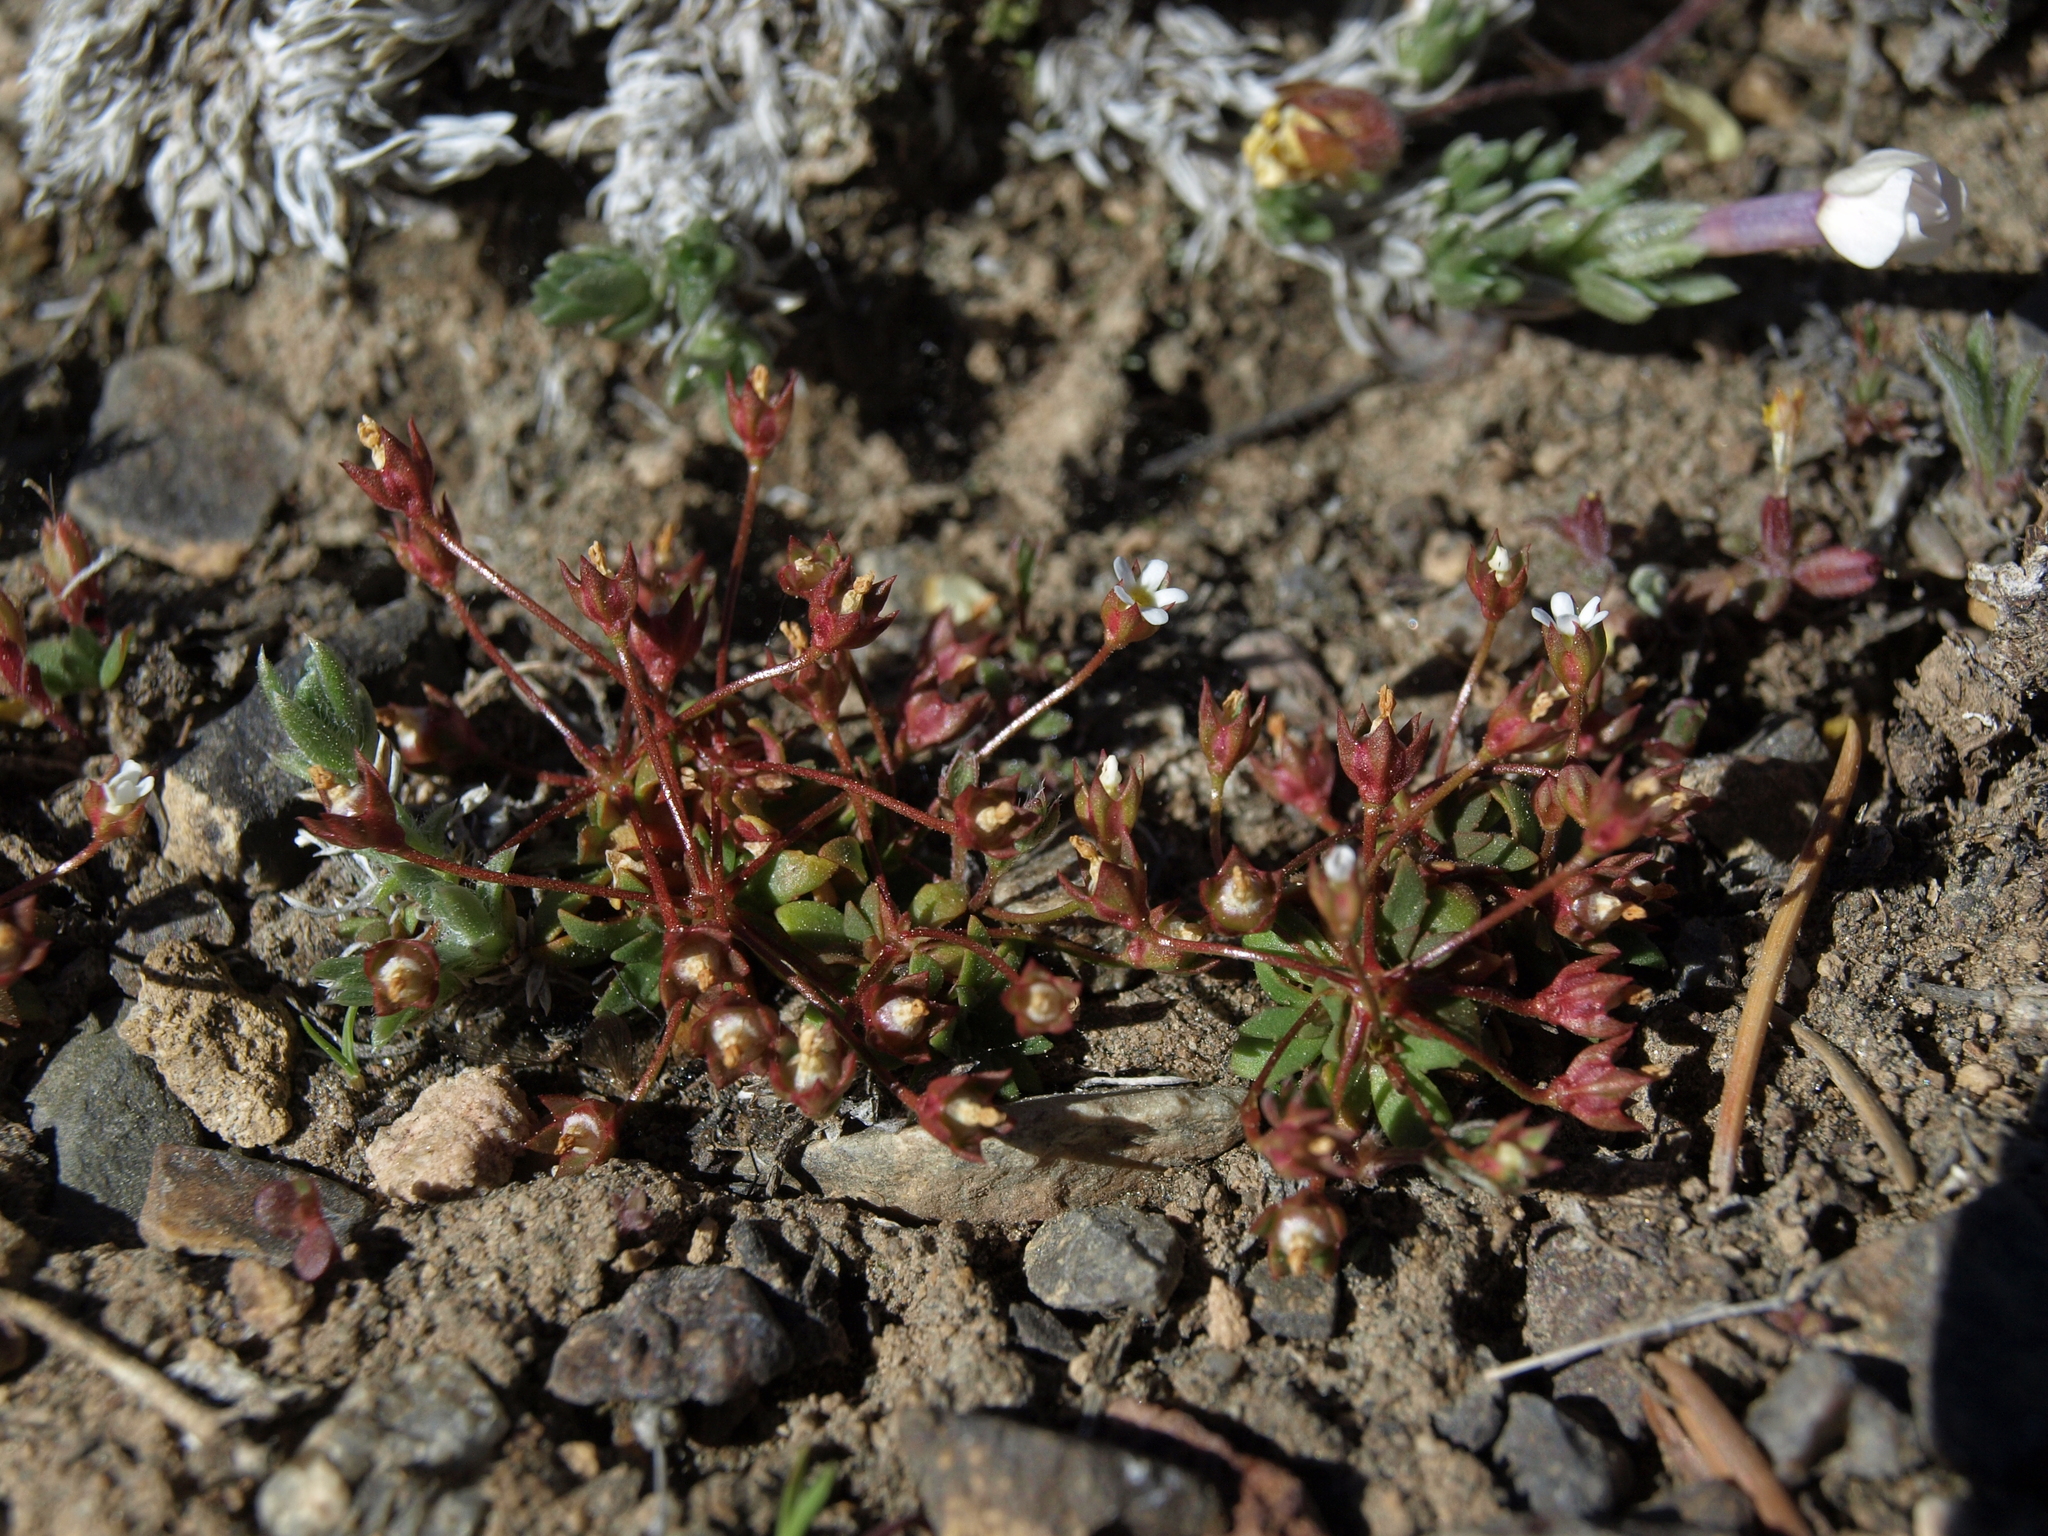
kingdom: Plantae
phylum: Tracheophyta
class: Magnoliopsida
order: Ericales
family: Primulaceae
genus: Androsace
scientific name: Androsace septentrionalis
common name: Hairy northern fairy-candelabra
